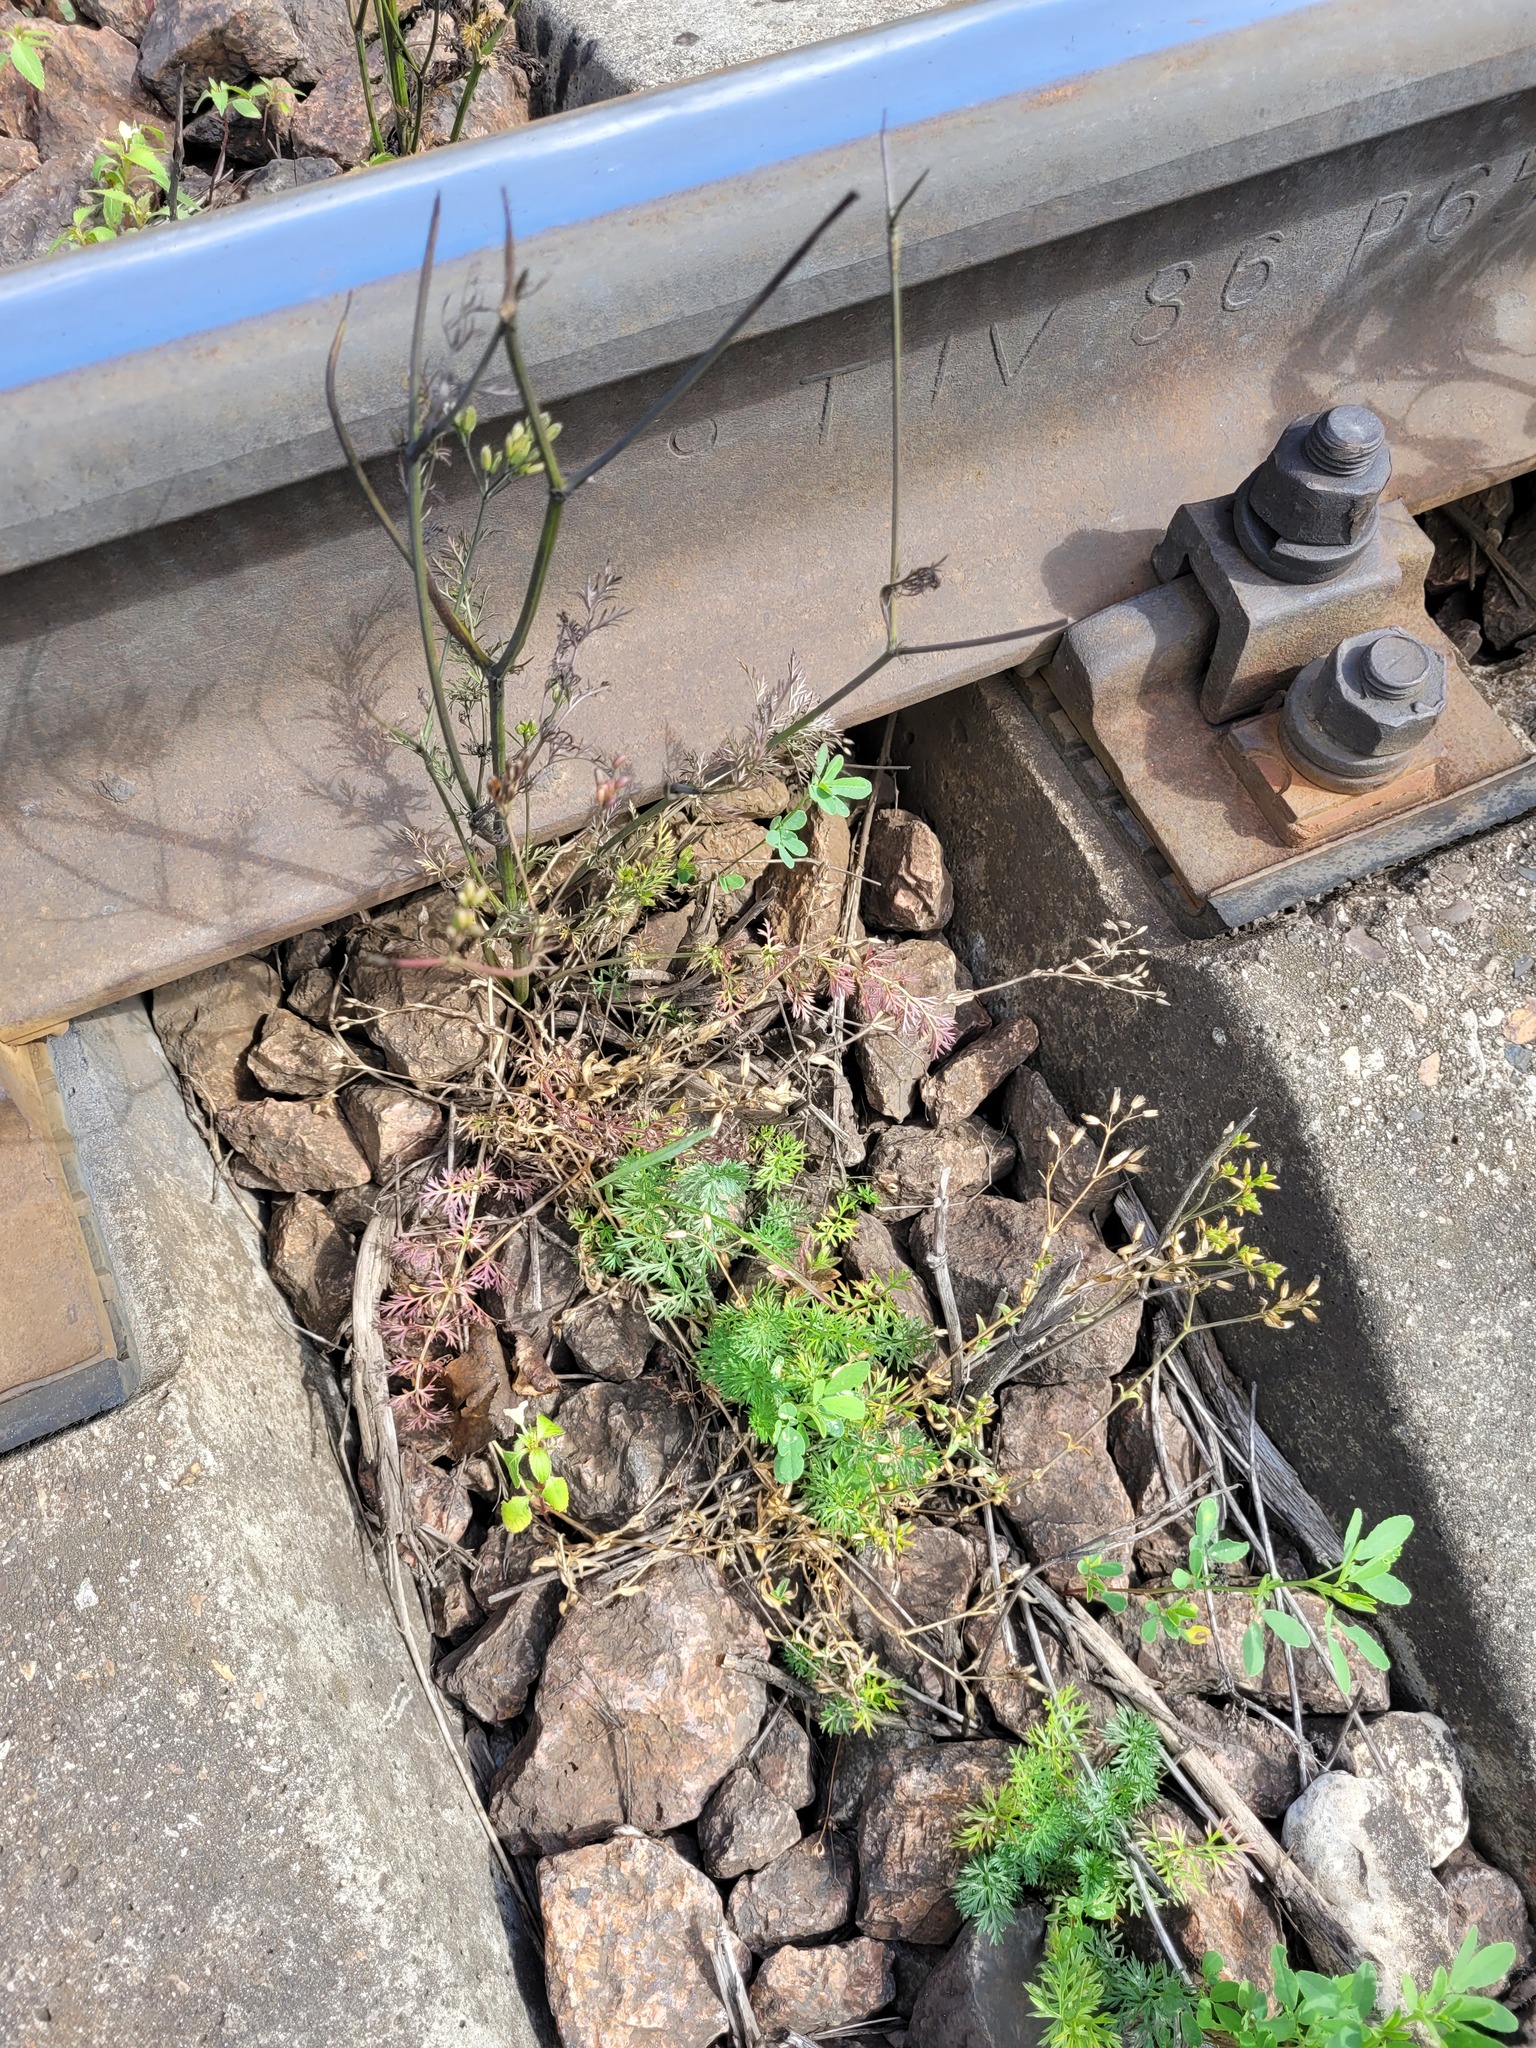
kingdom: Plantae
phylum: Tracheophyta
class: Magnoliopsida
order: Apiales
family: Apiaceae
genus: Carum
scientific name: Carum carvi
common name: Caraway
